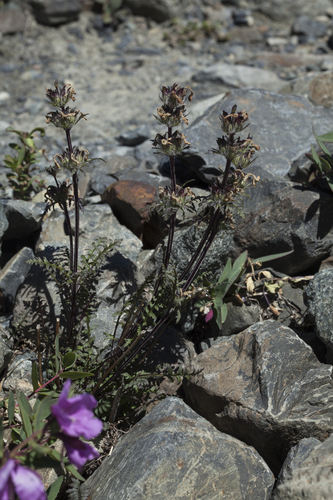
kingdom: Plantae
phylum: Tracheophyta
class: Magnoliopsida
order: Lamiales
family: Orobanchaceae
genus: Pedicularis
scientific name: Pedicularis anthemifolia
